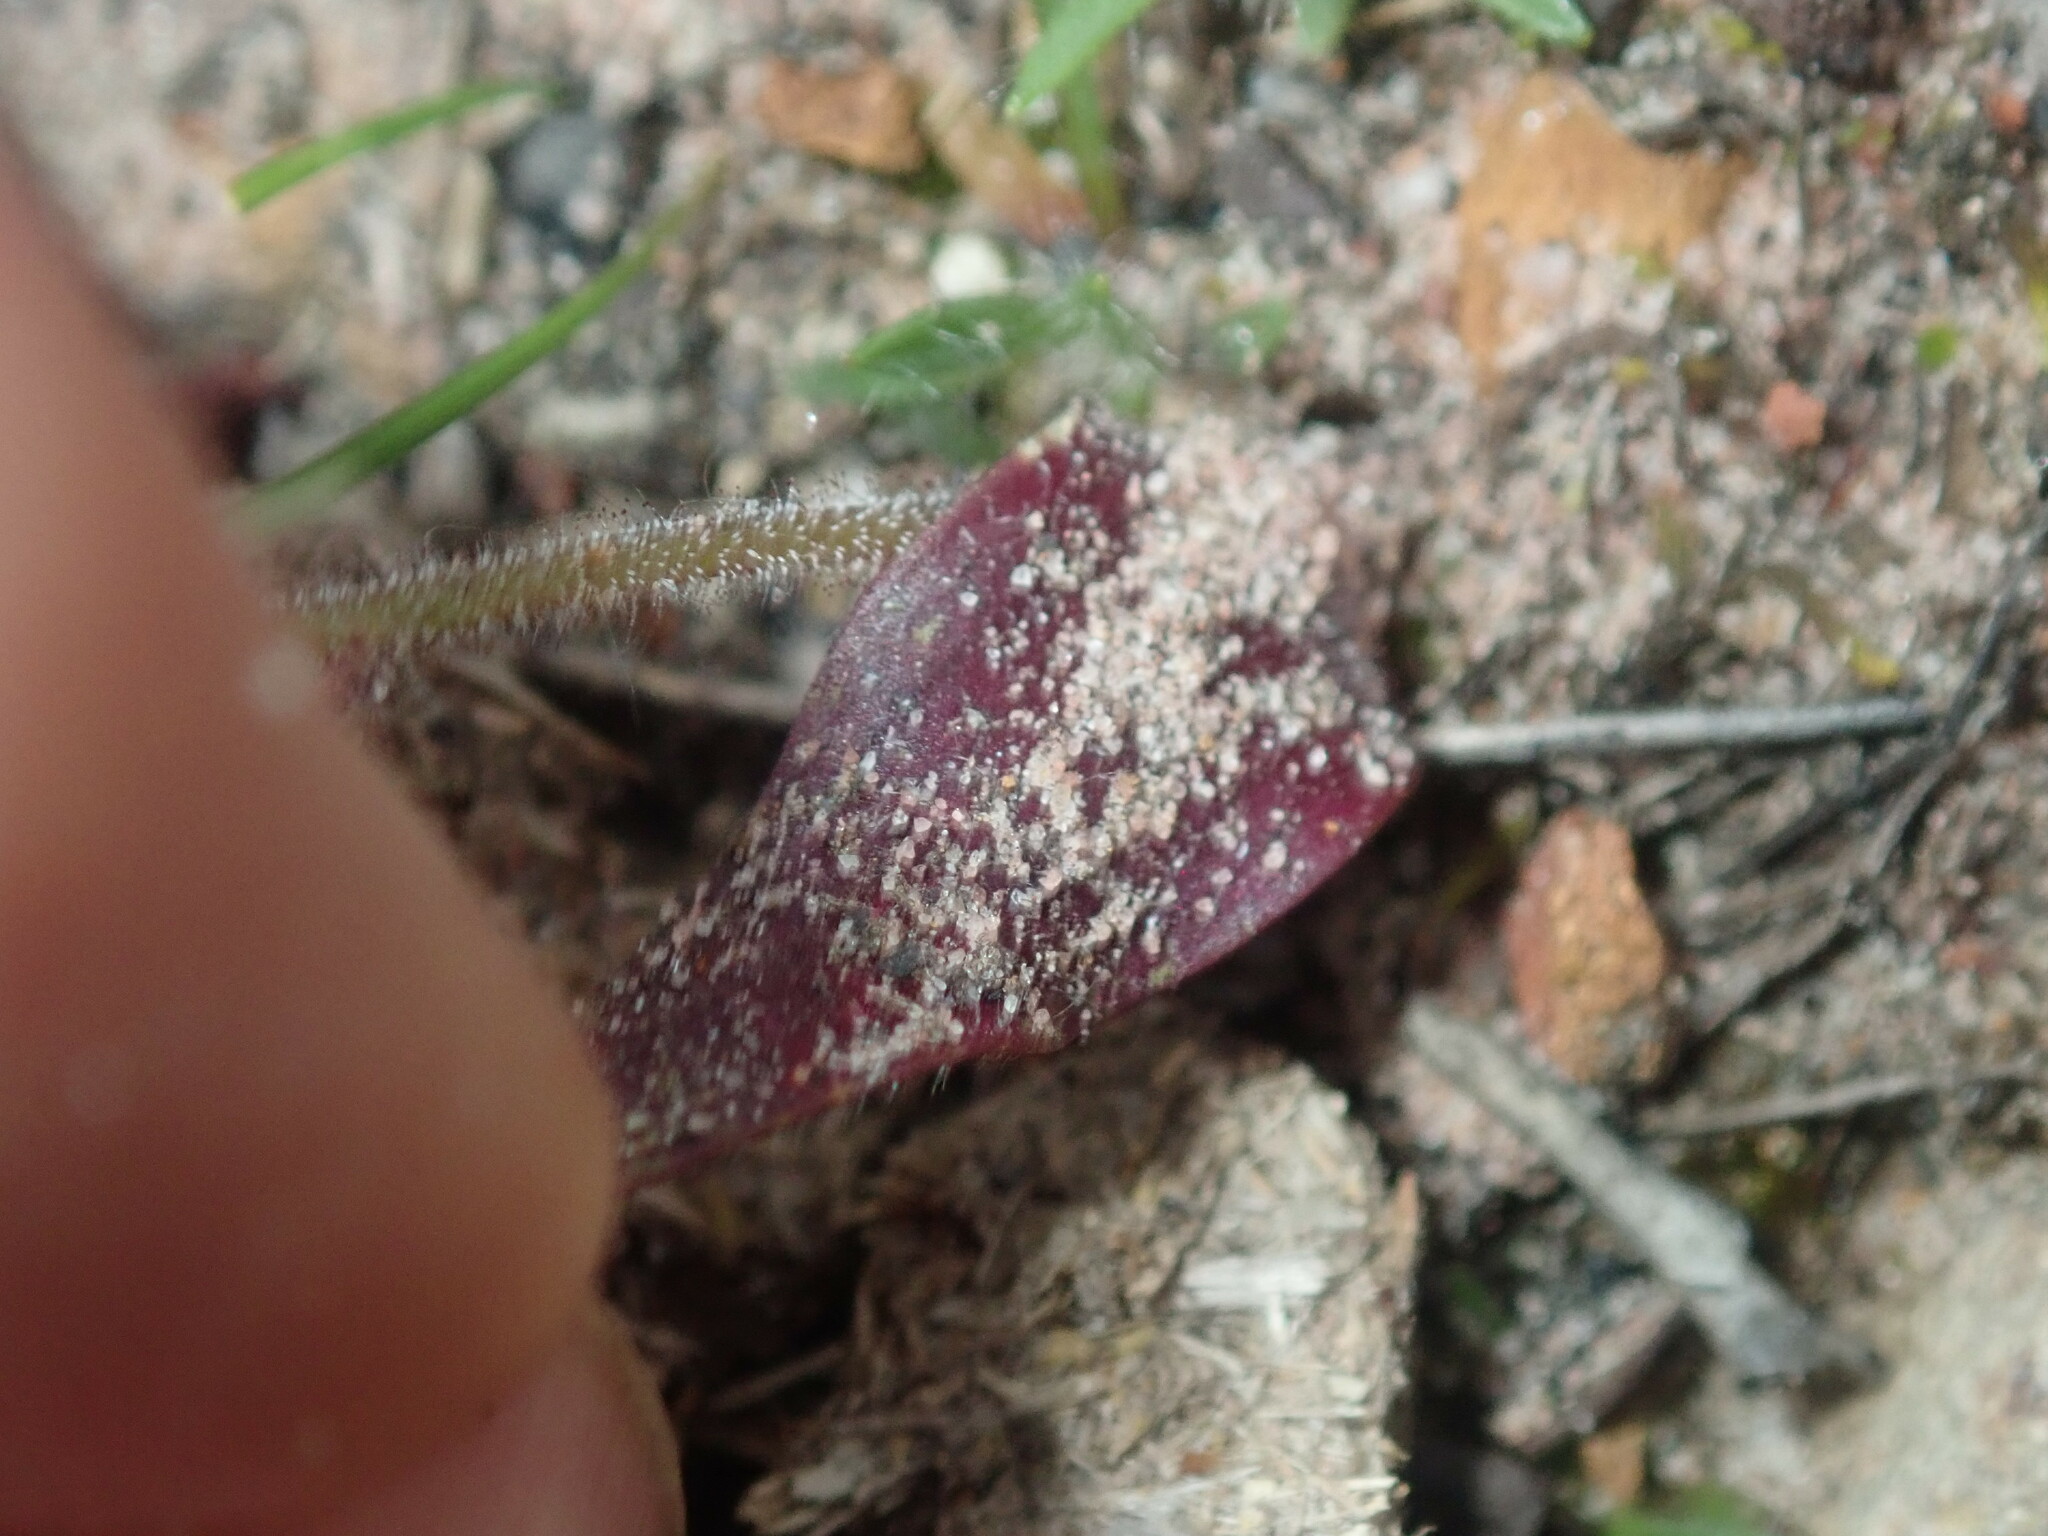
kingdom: Plantae
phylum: Tracheophyta
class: Liliopsida
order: Asparagales
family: Orchidaceae
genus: Caladenia
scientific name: Caladenia reptans
